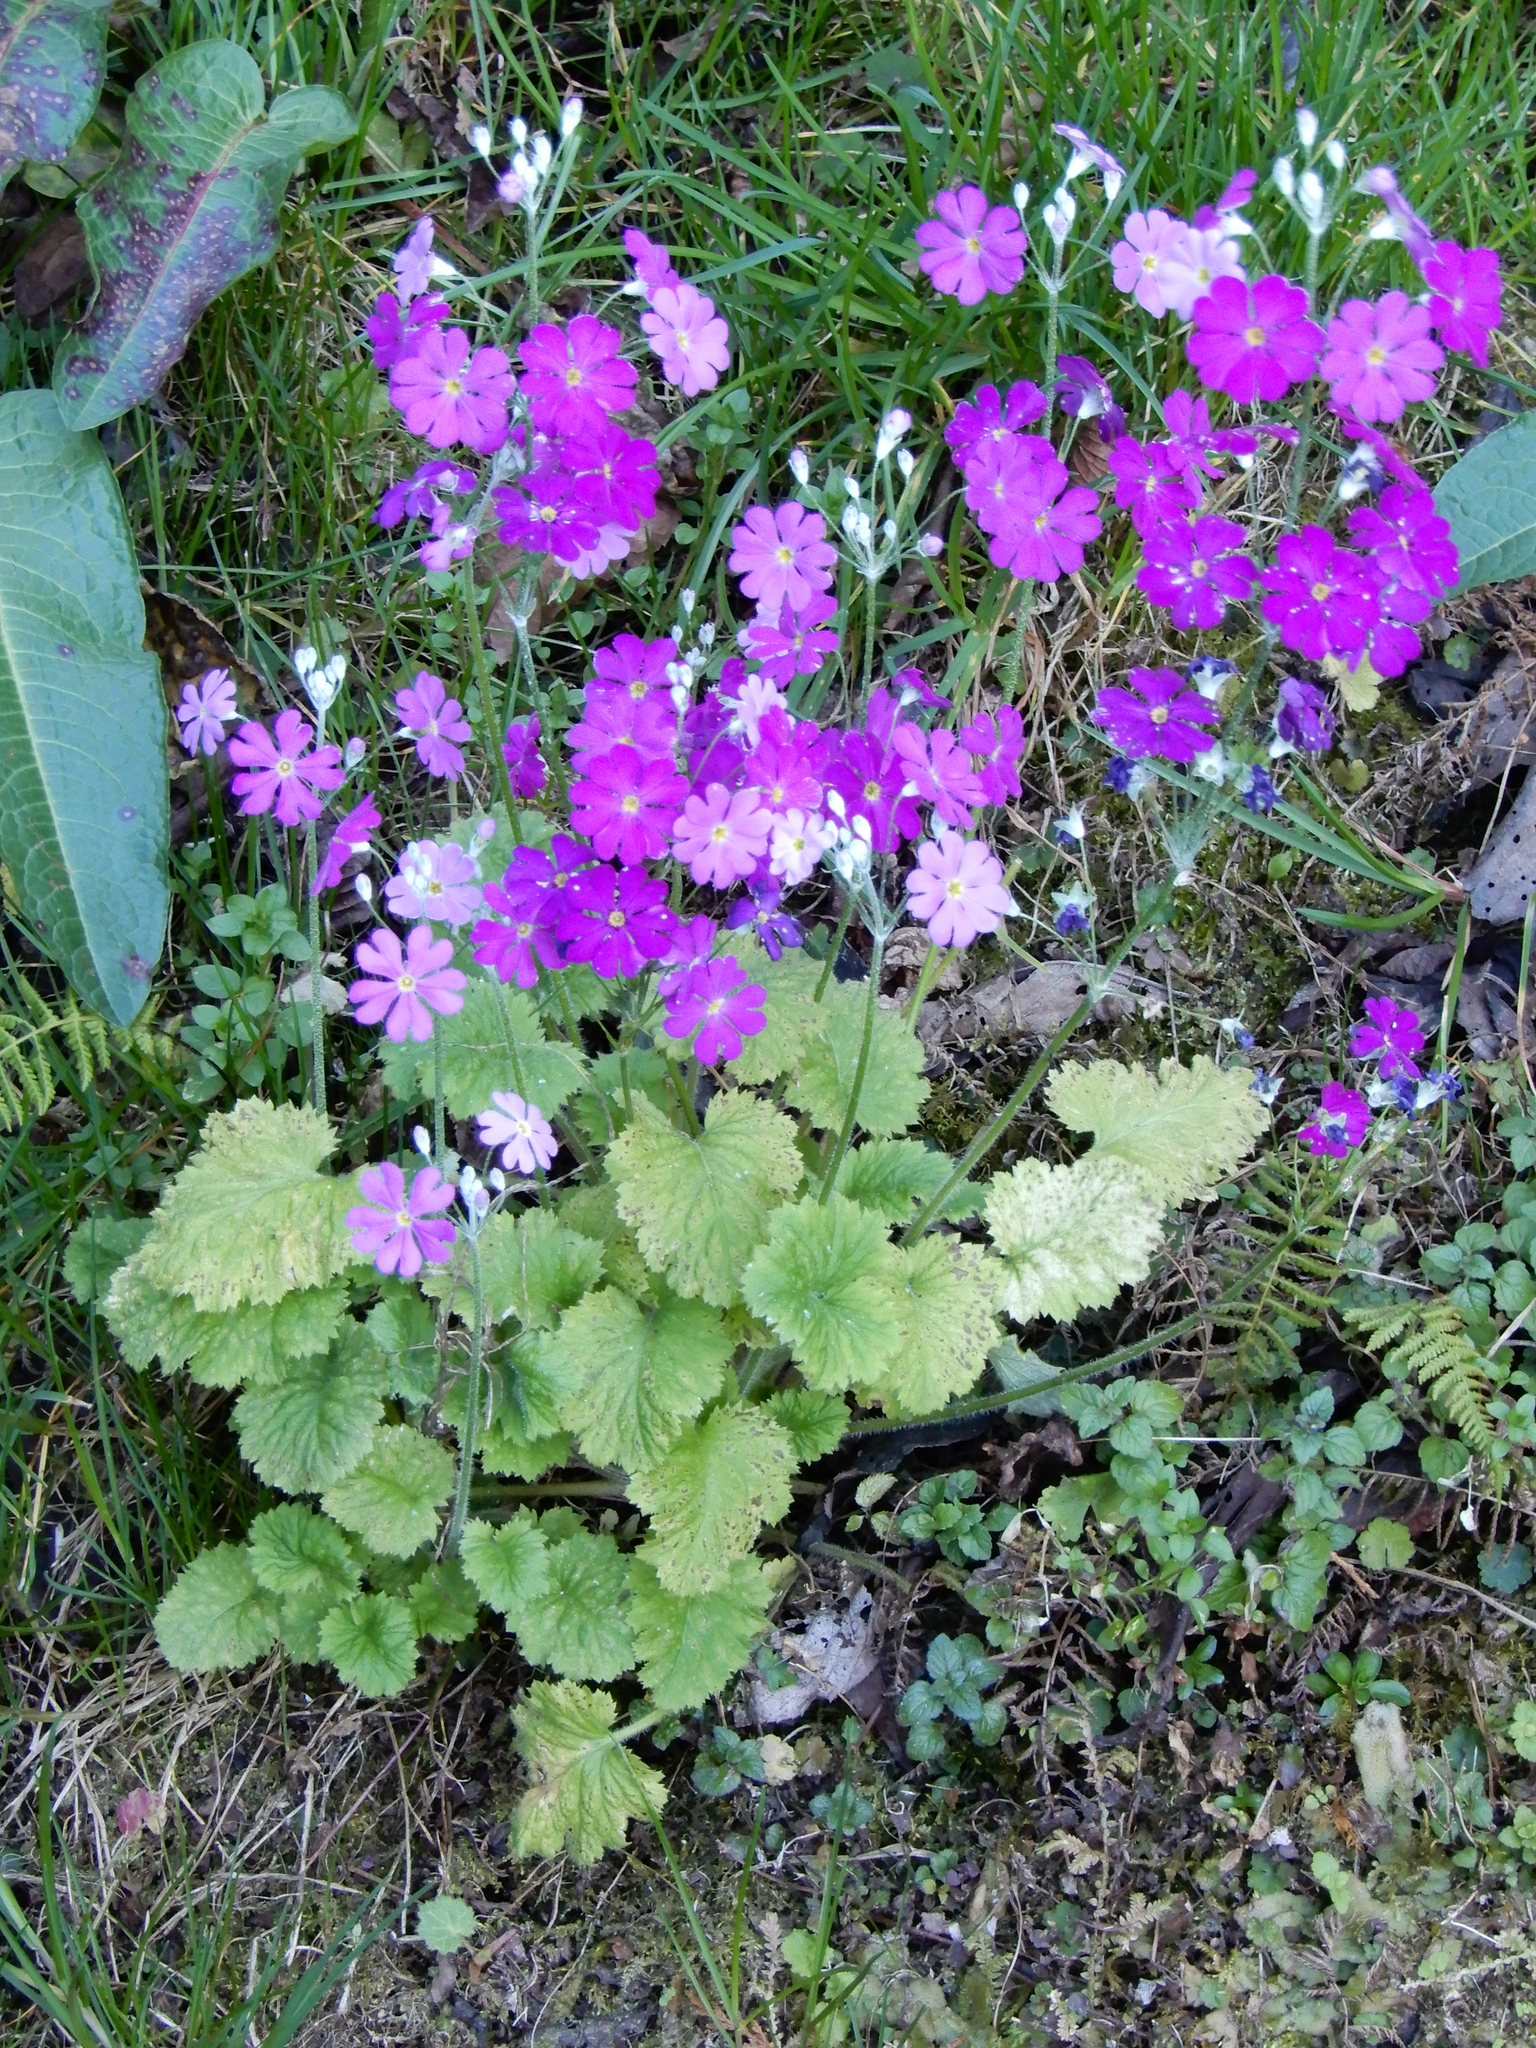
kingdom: Plantae
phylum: Tracheophyta
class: Magnoliopsida
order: Ericales
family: Primulaceae
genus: Primula
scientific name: Primula malacoides
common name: Baby primrose
